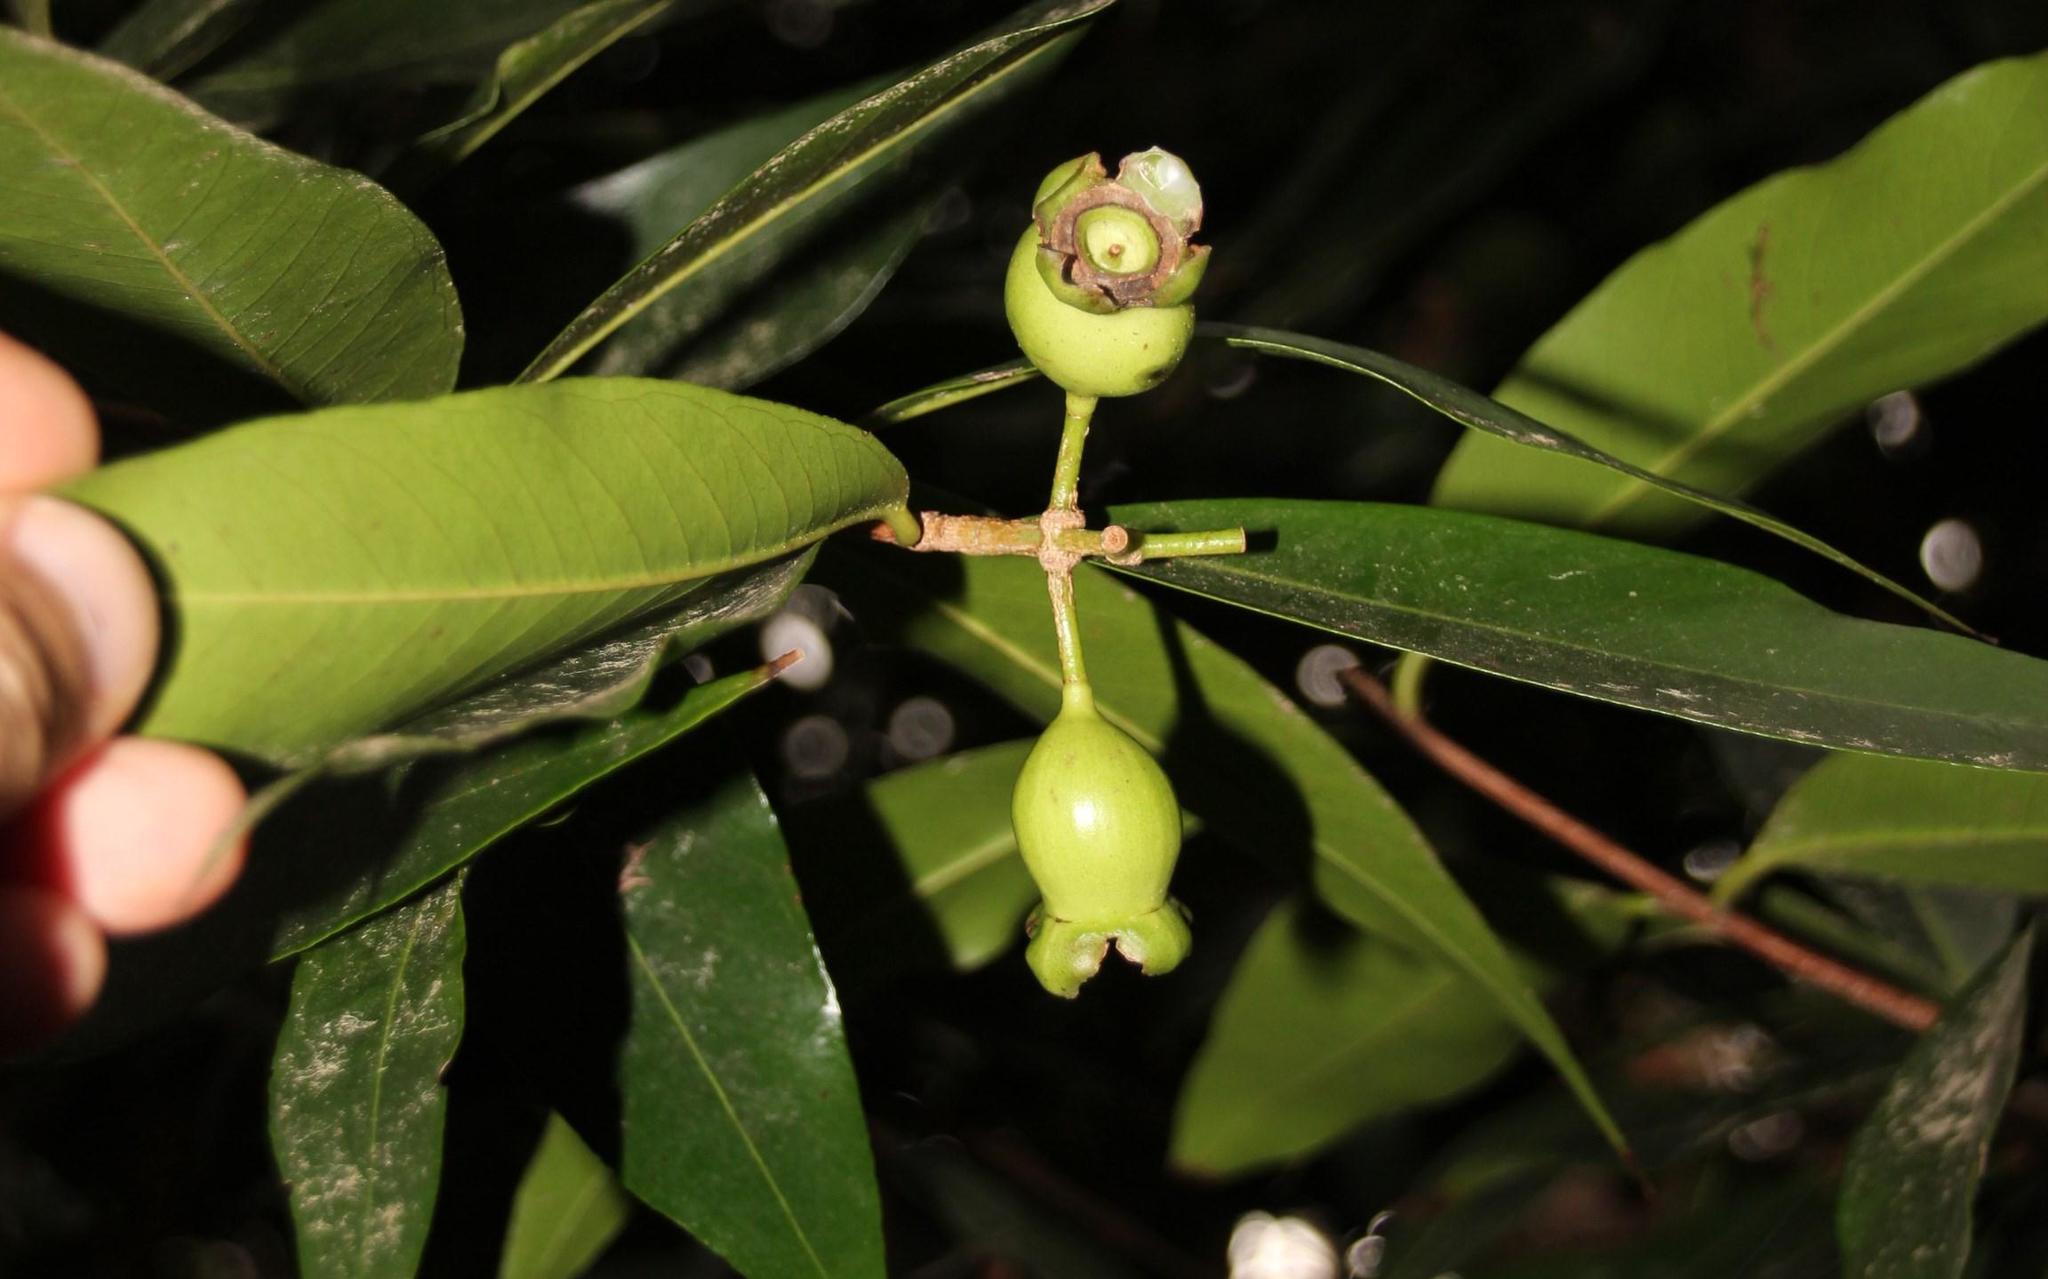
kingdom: Plantae
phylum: Tracheophyta
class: Magnoliopsida
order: Myrtales
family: Myrtaceae
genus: Syzygium
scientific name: Syzygium jambos
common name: Malabar plum
